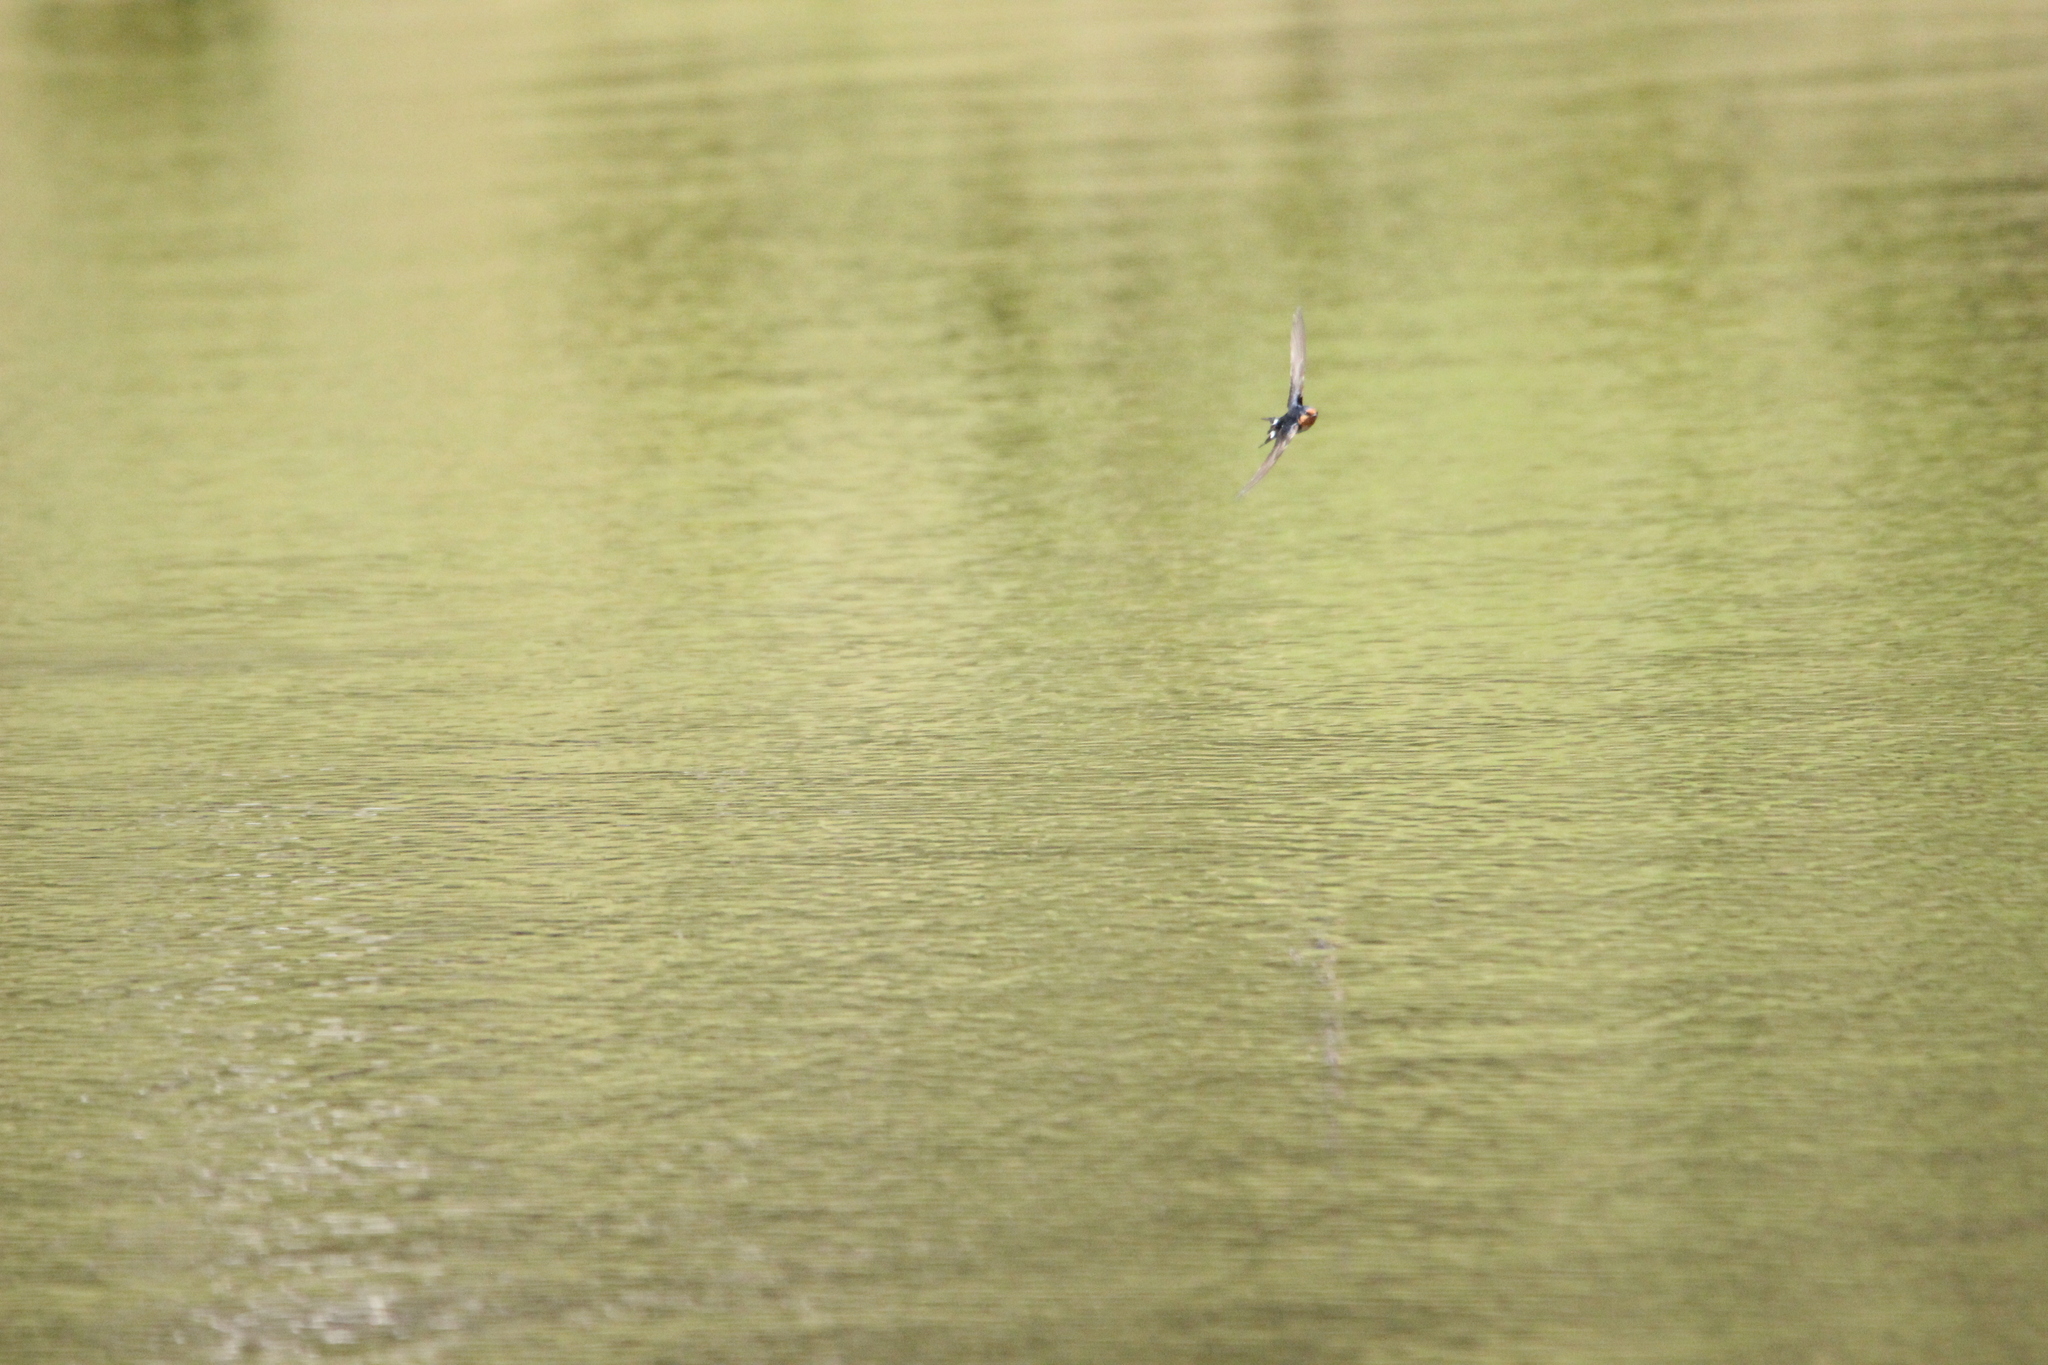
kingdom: Animalia
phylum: Chordata
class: Aves
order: Passeriformes
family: Hirundinidae
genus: Hirundo
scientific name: Hirundo neoxena
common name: Welcome swallow
